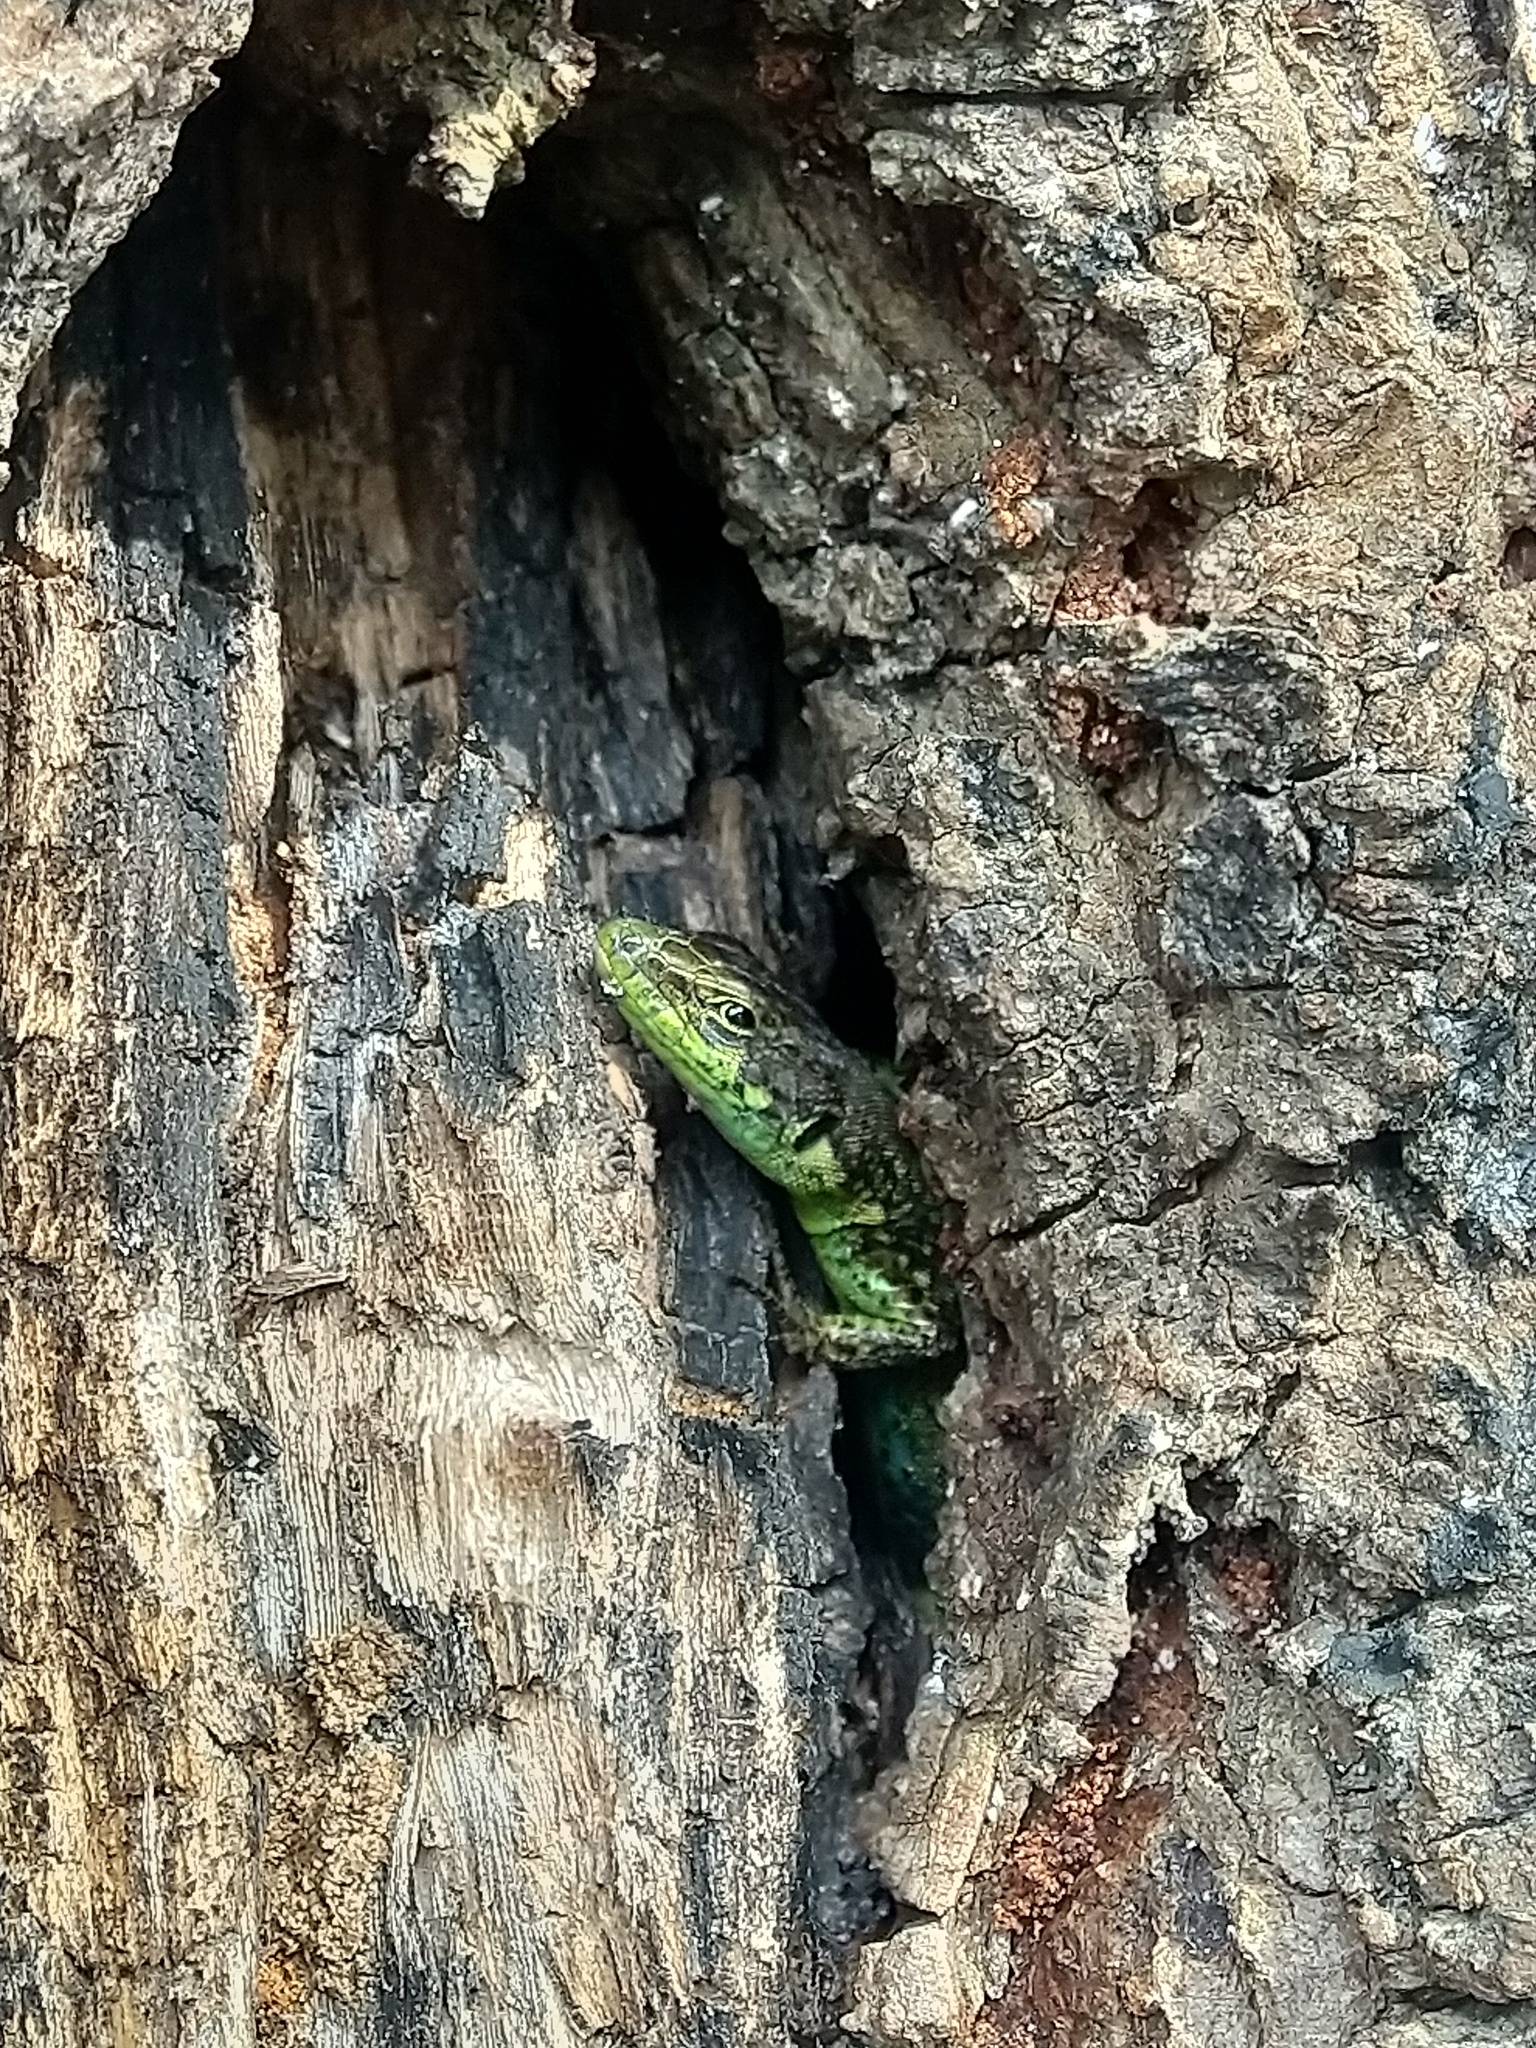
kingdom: Animalia
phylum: Chordata
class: Squamata
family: Lacertidae
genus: Darevskia
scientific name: Darevskia chlorogaster
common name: Green-bellied lizard
